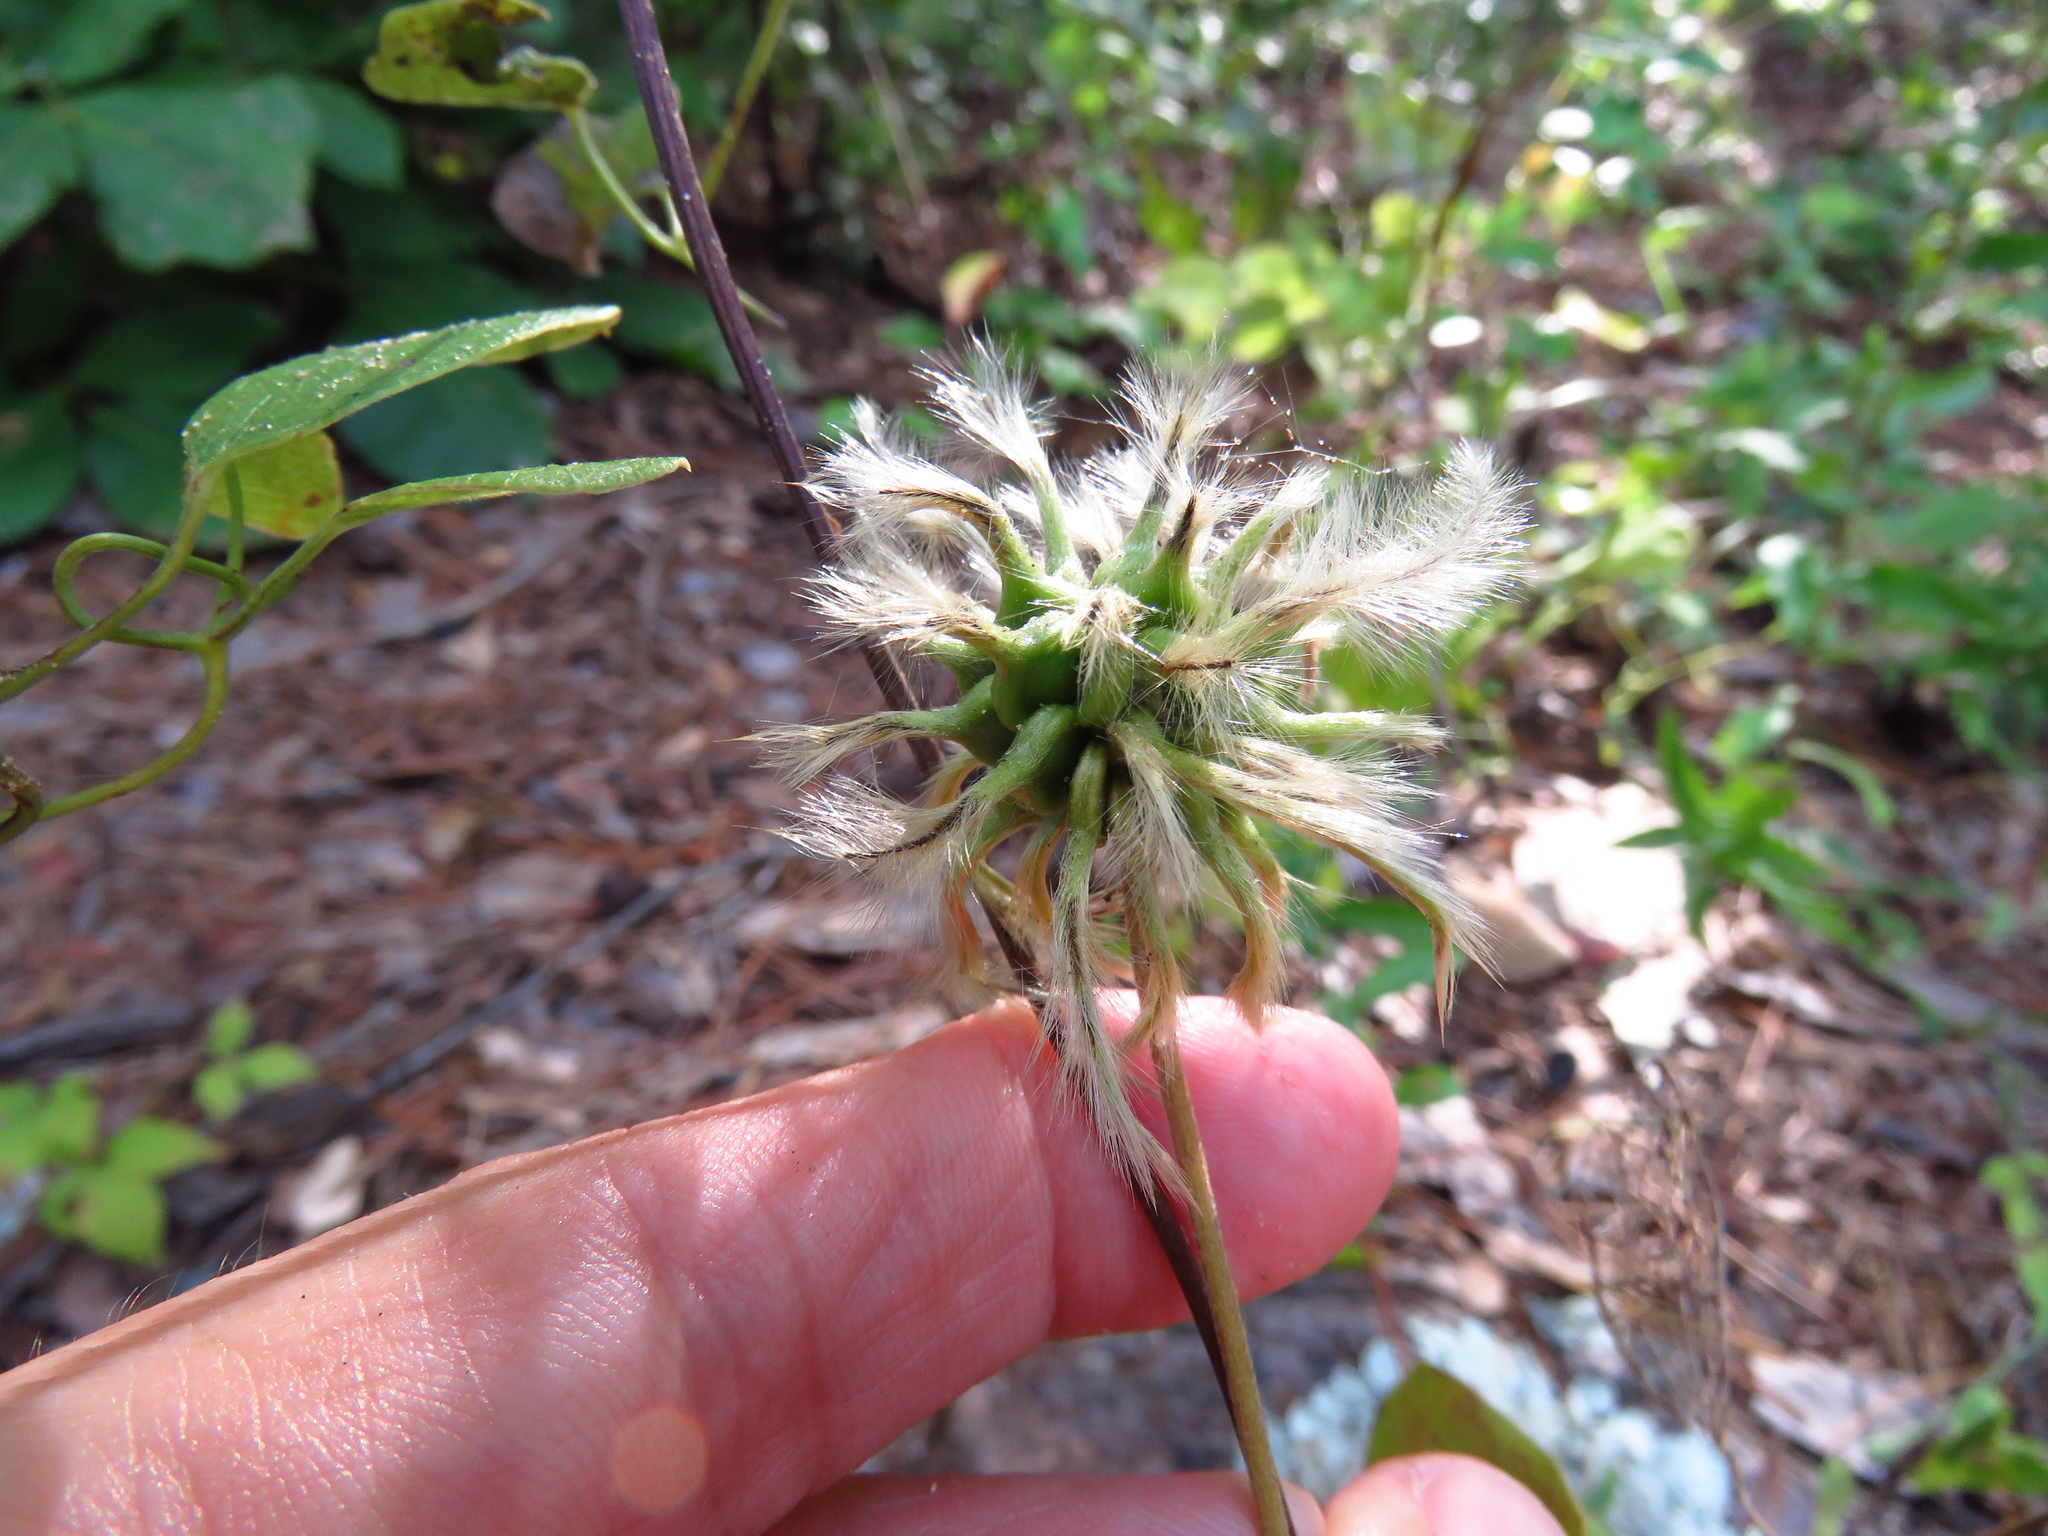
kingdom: Plantae
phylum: Tracheophyta
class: Magnoliopsida
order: Ranunculales
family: Ranunculaceae
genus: Clematis
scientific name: Clematis reticulata
